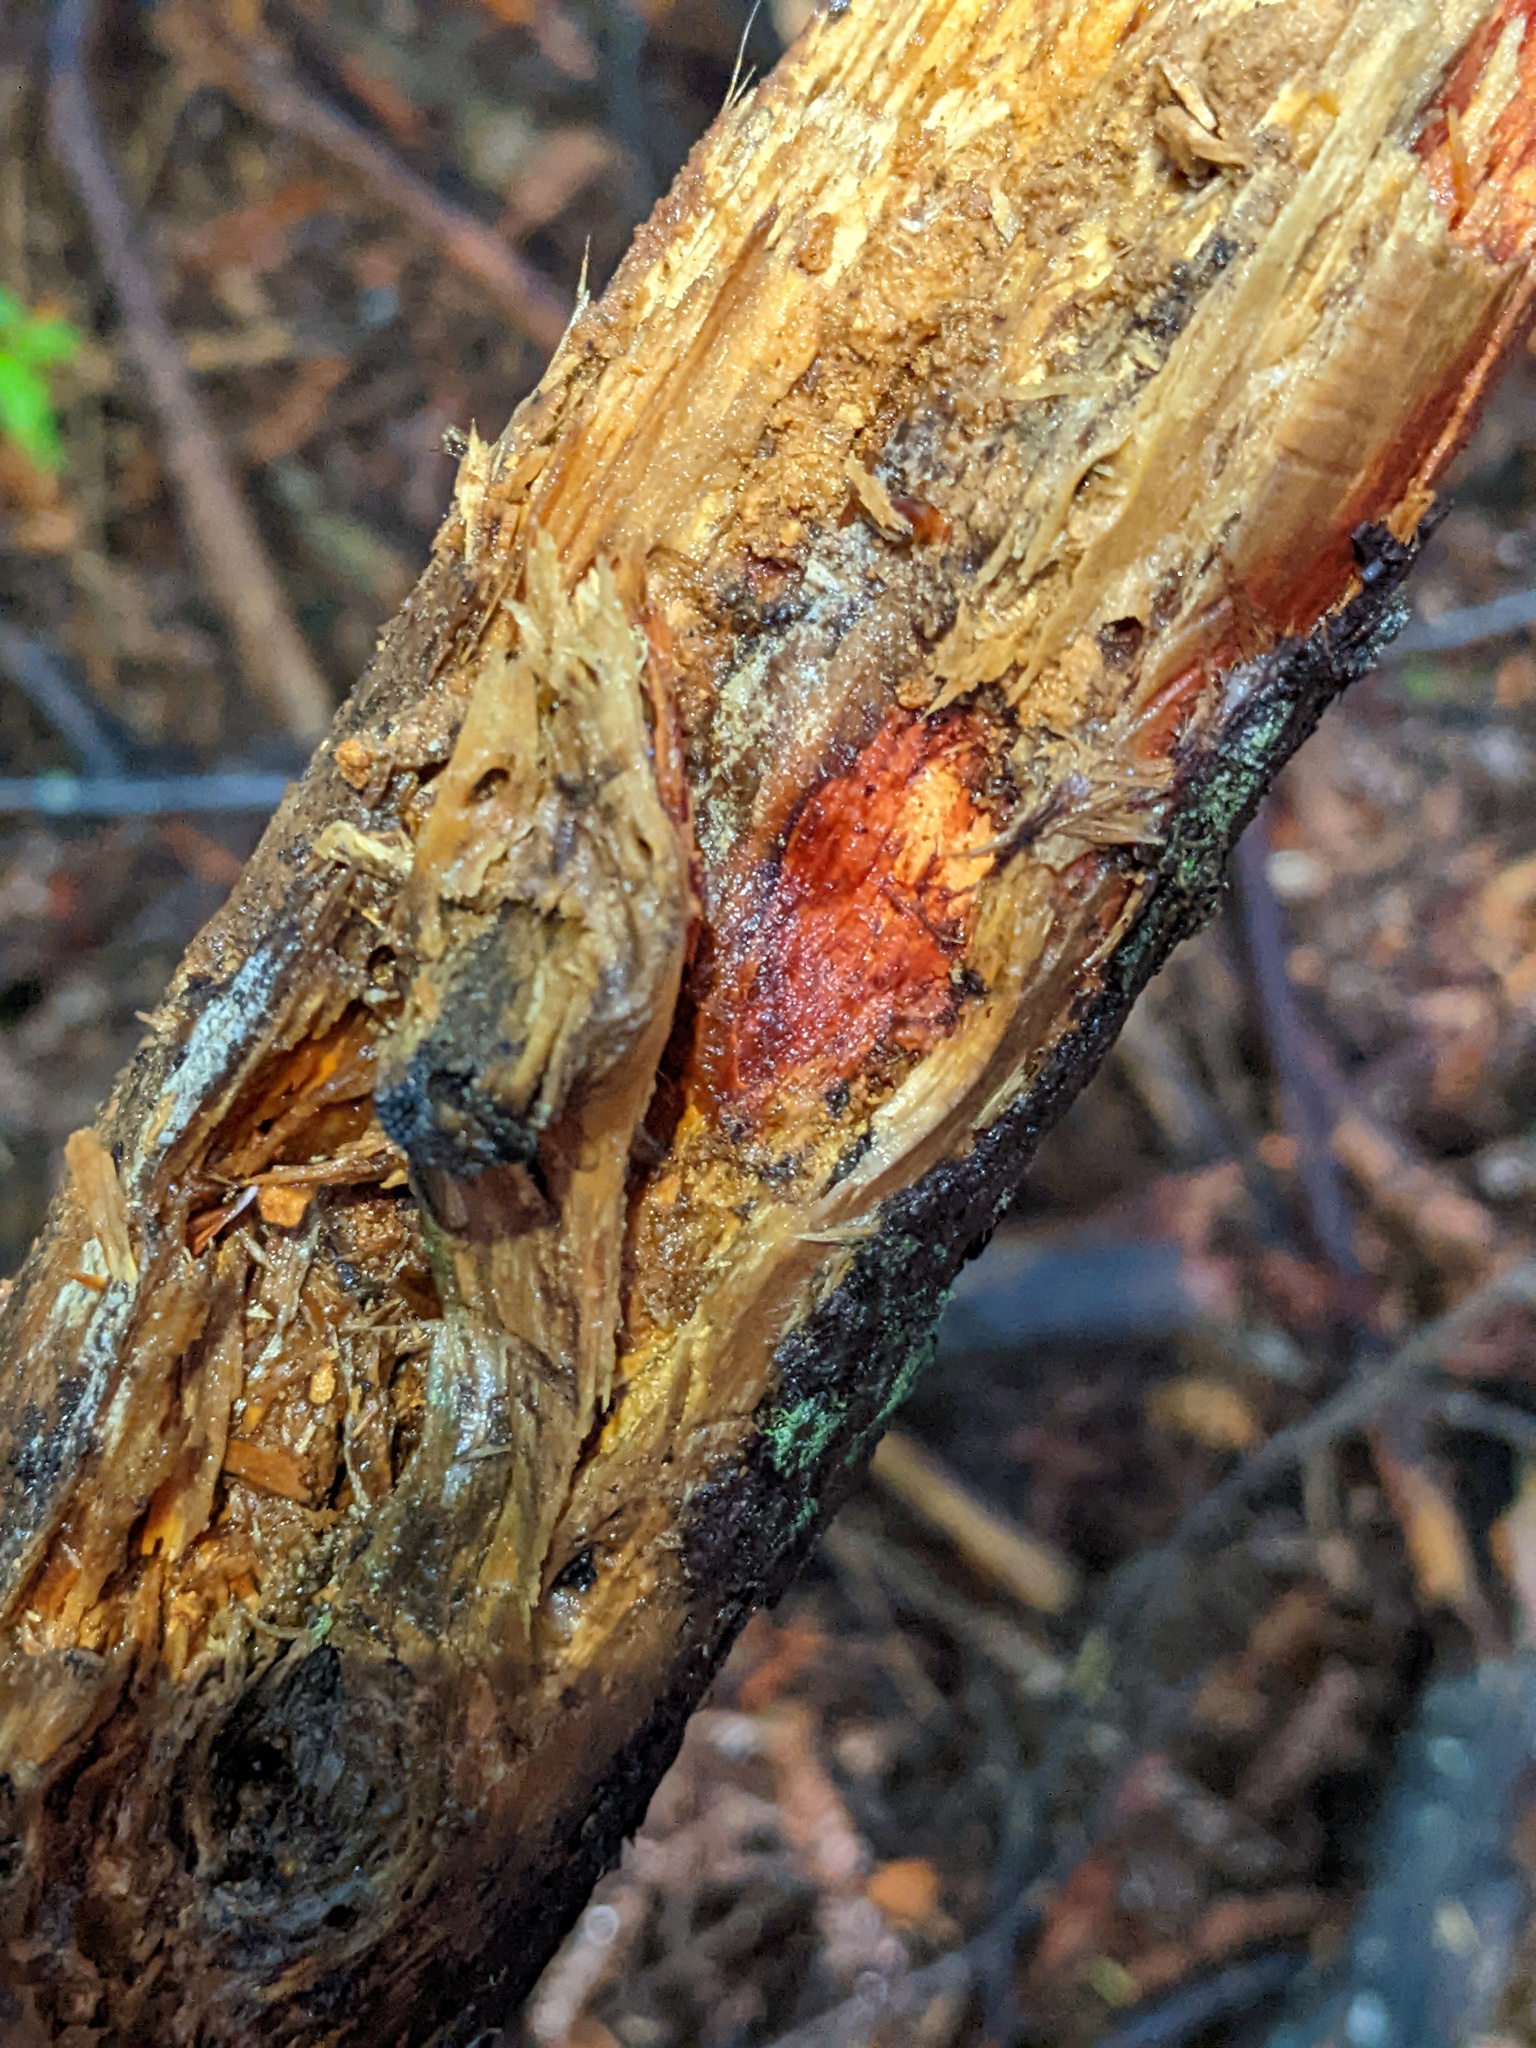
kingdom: Fungi
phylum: Basidiomycota
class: Agaricomycetes
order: Polyporales
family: Phanerochaetaceae
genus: Atheliachaete
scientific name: Atheliachaete sanguinea
